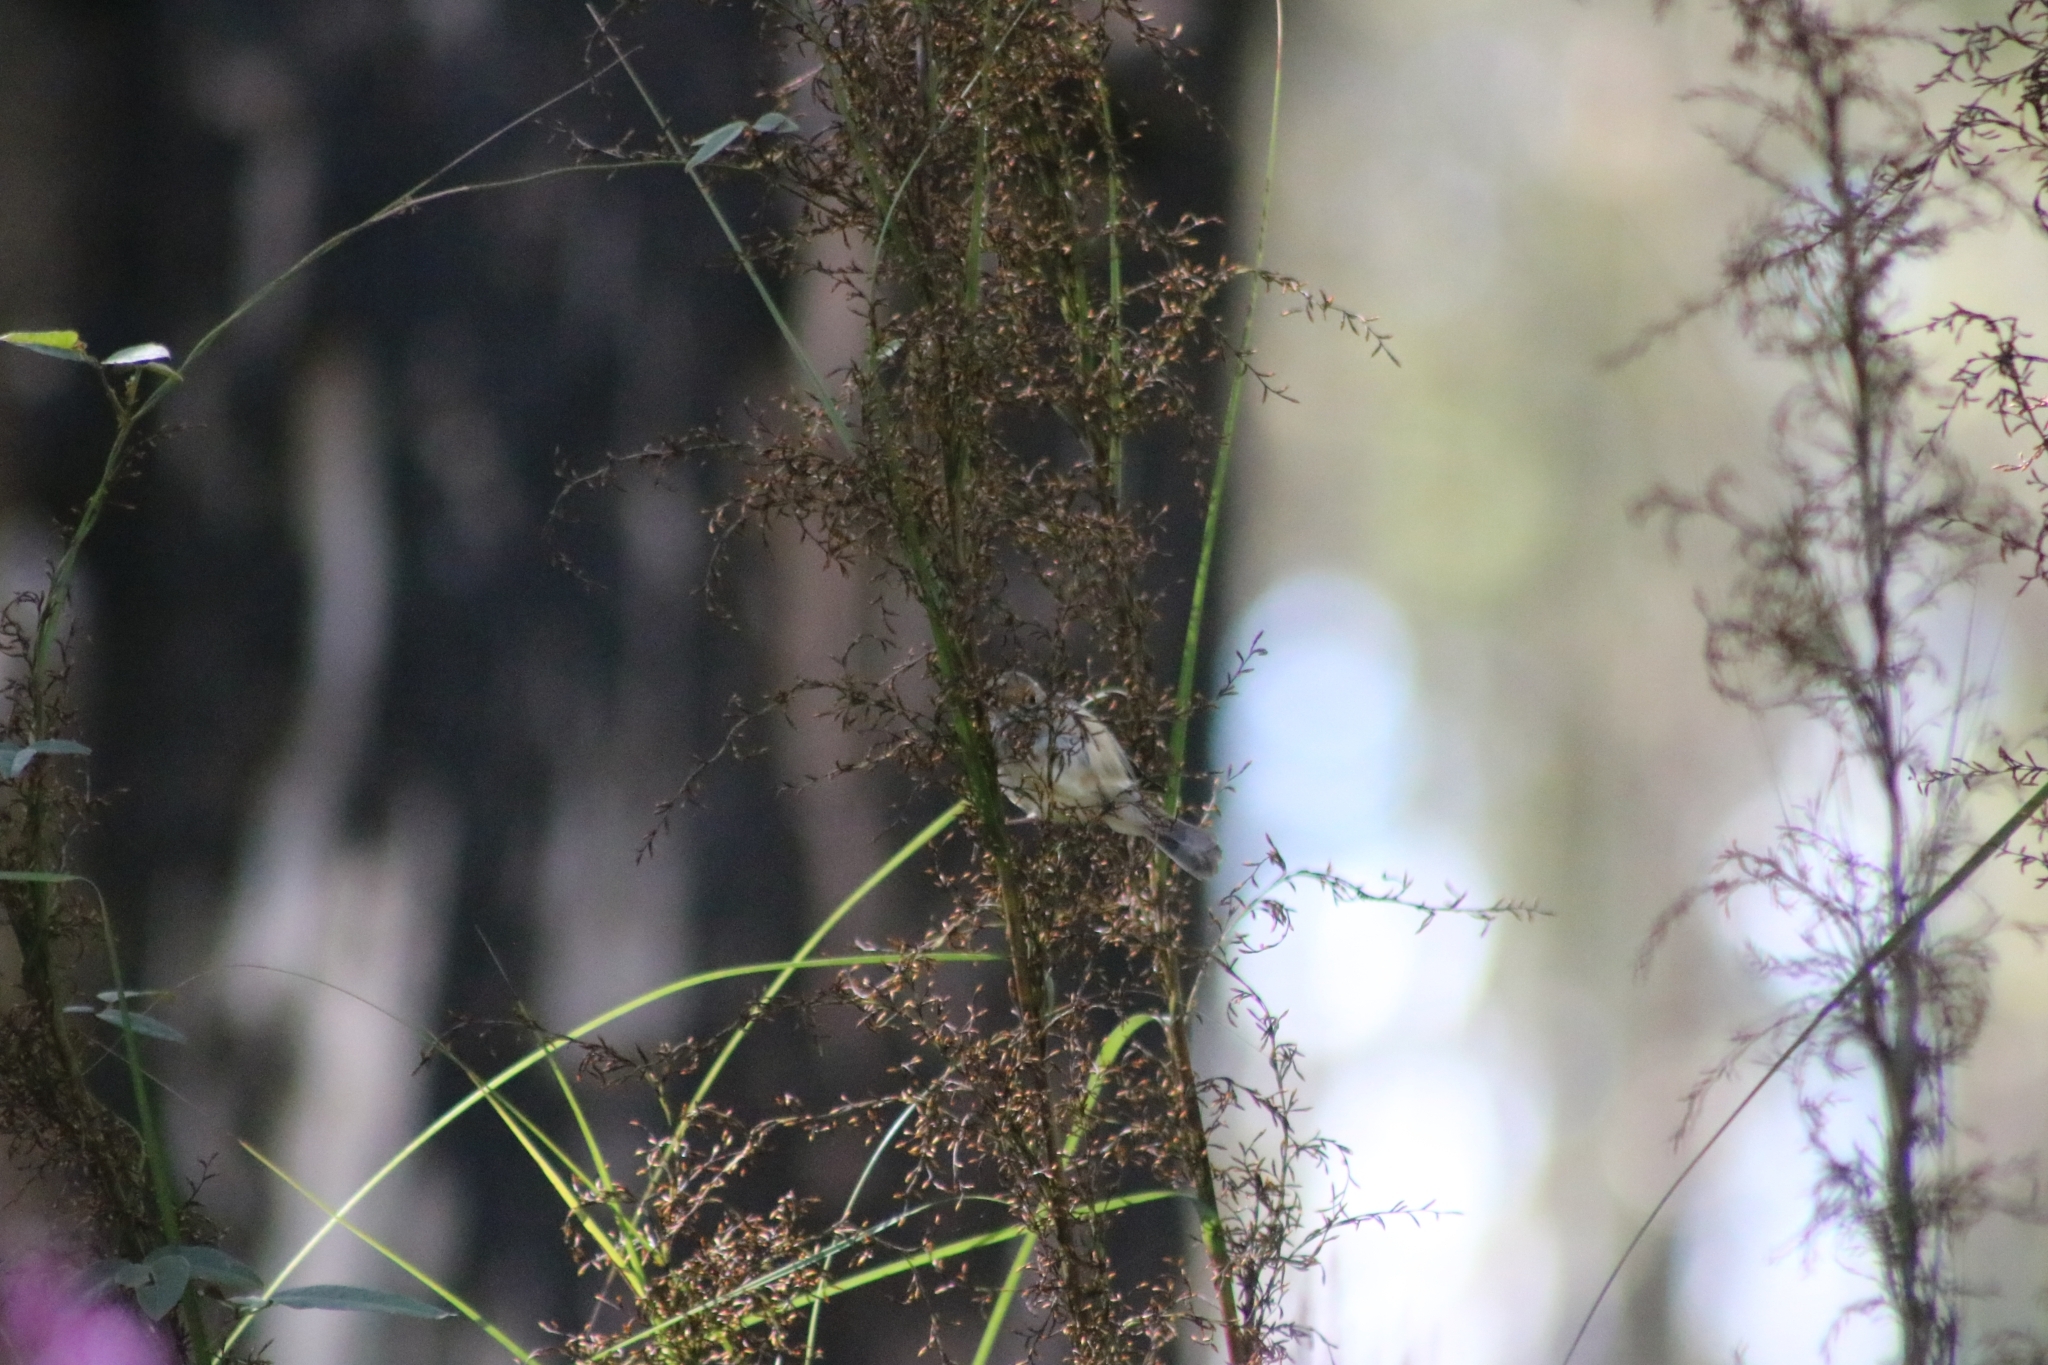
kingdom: Animalia
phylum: Chordata
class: Aves
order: Passeriformes
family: Acanthizidae
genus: Acanthiza
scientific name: Acanthiza lineata
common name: Striated thornbill
